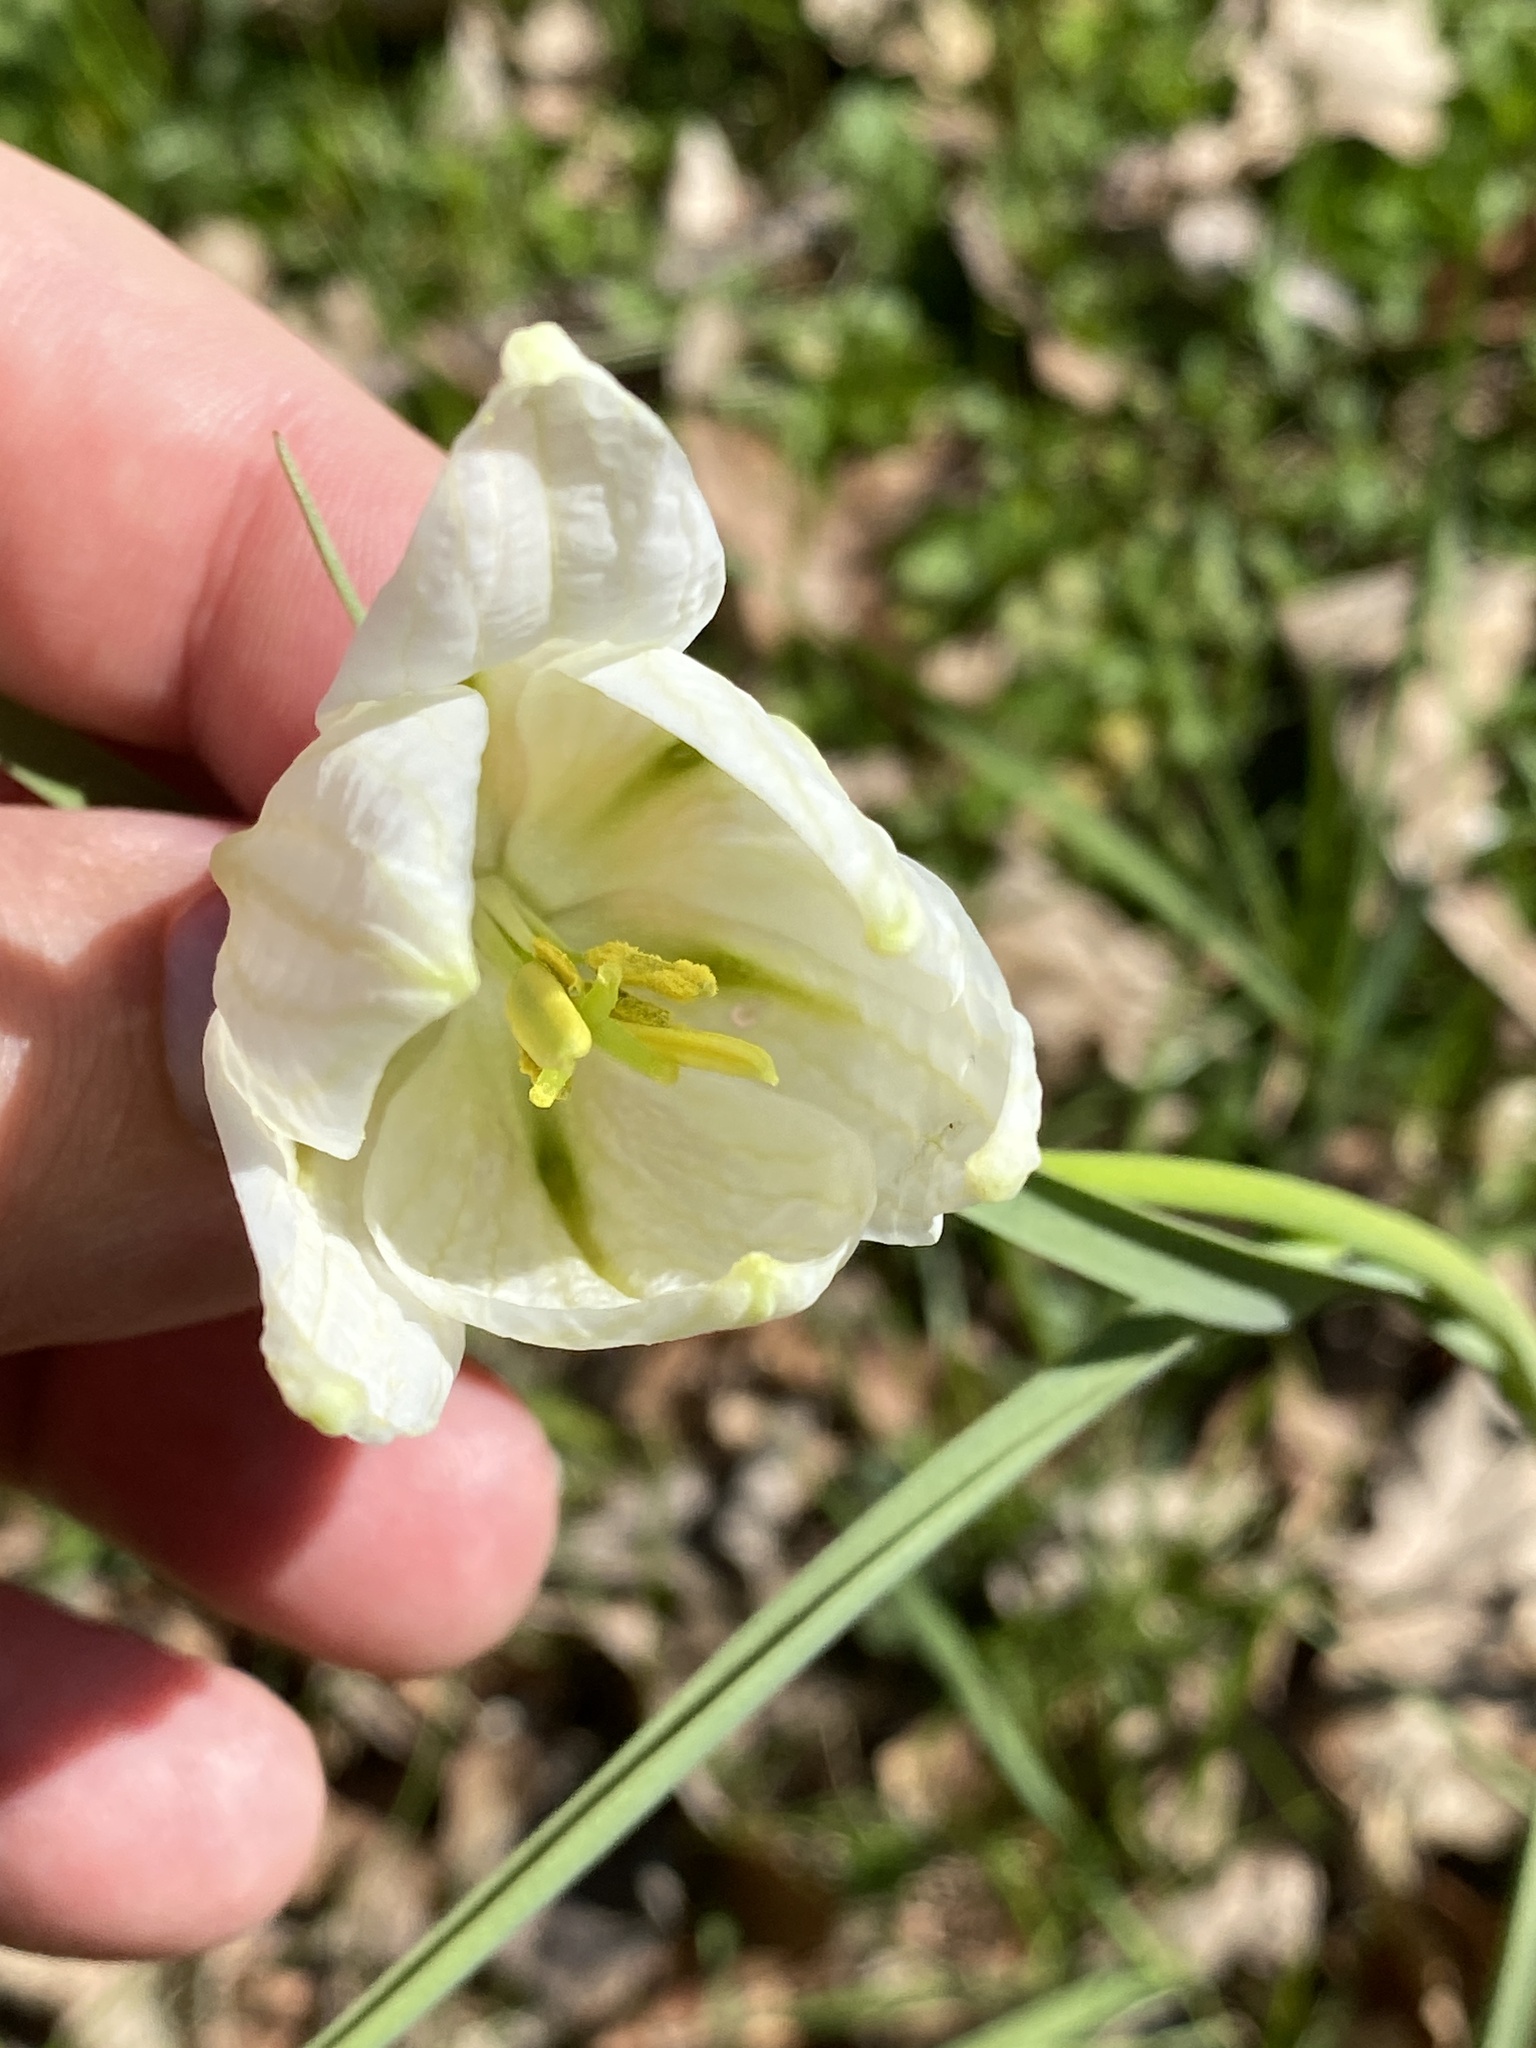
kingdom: Plantae
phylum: Tracheophyta
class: Liliopsida
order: Liliales
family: Liliaceae
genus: Fritillaria
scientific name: Fritillaria meleagris
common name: Fritillary
